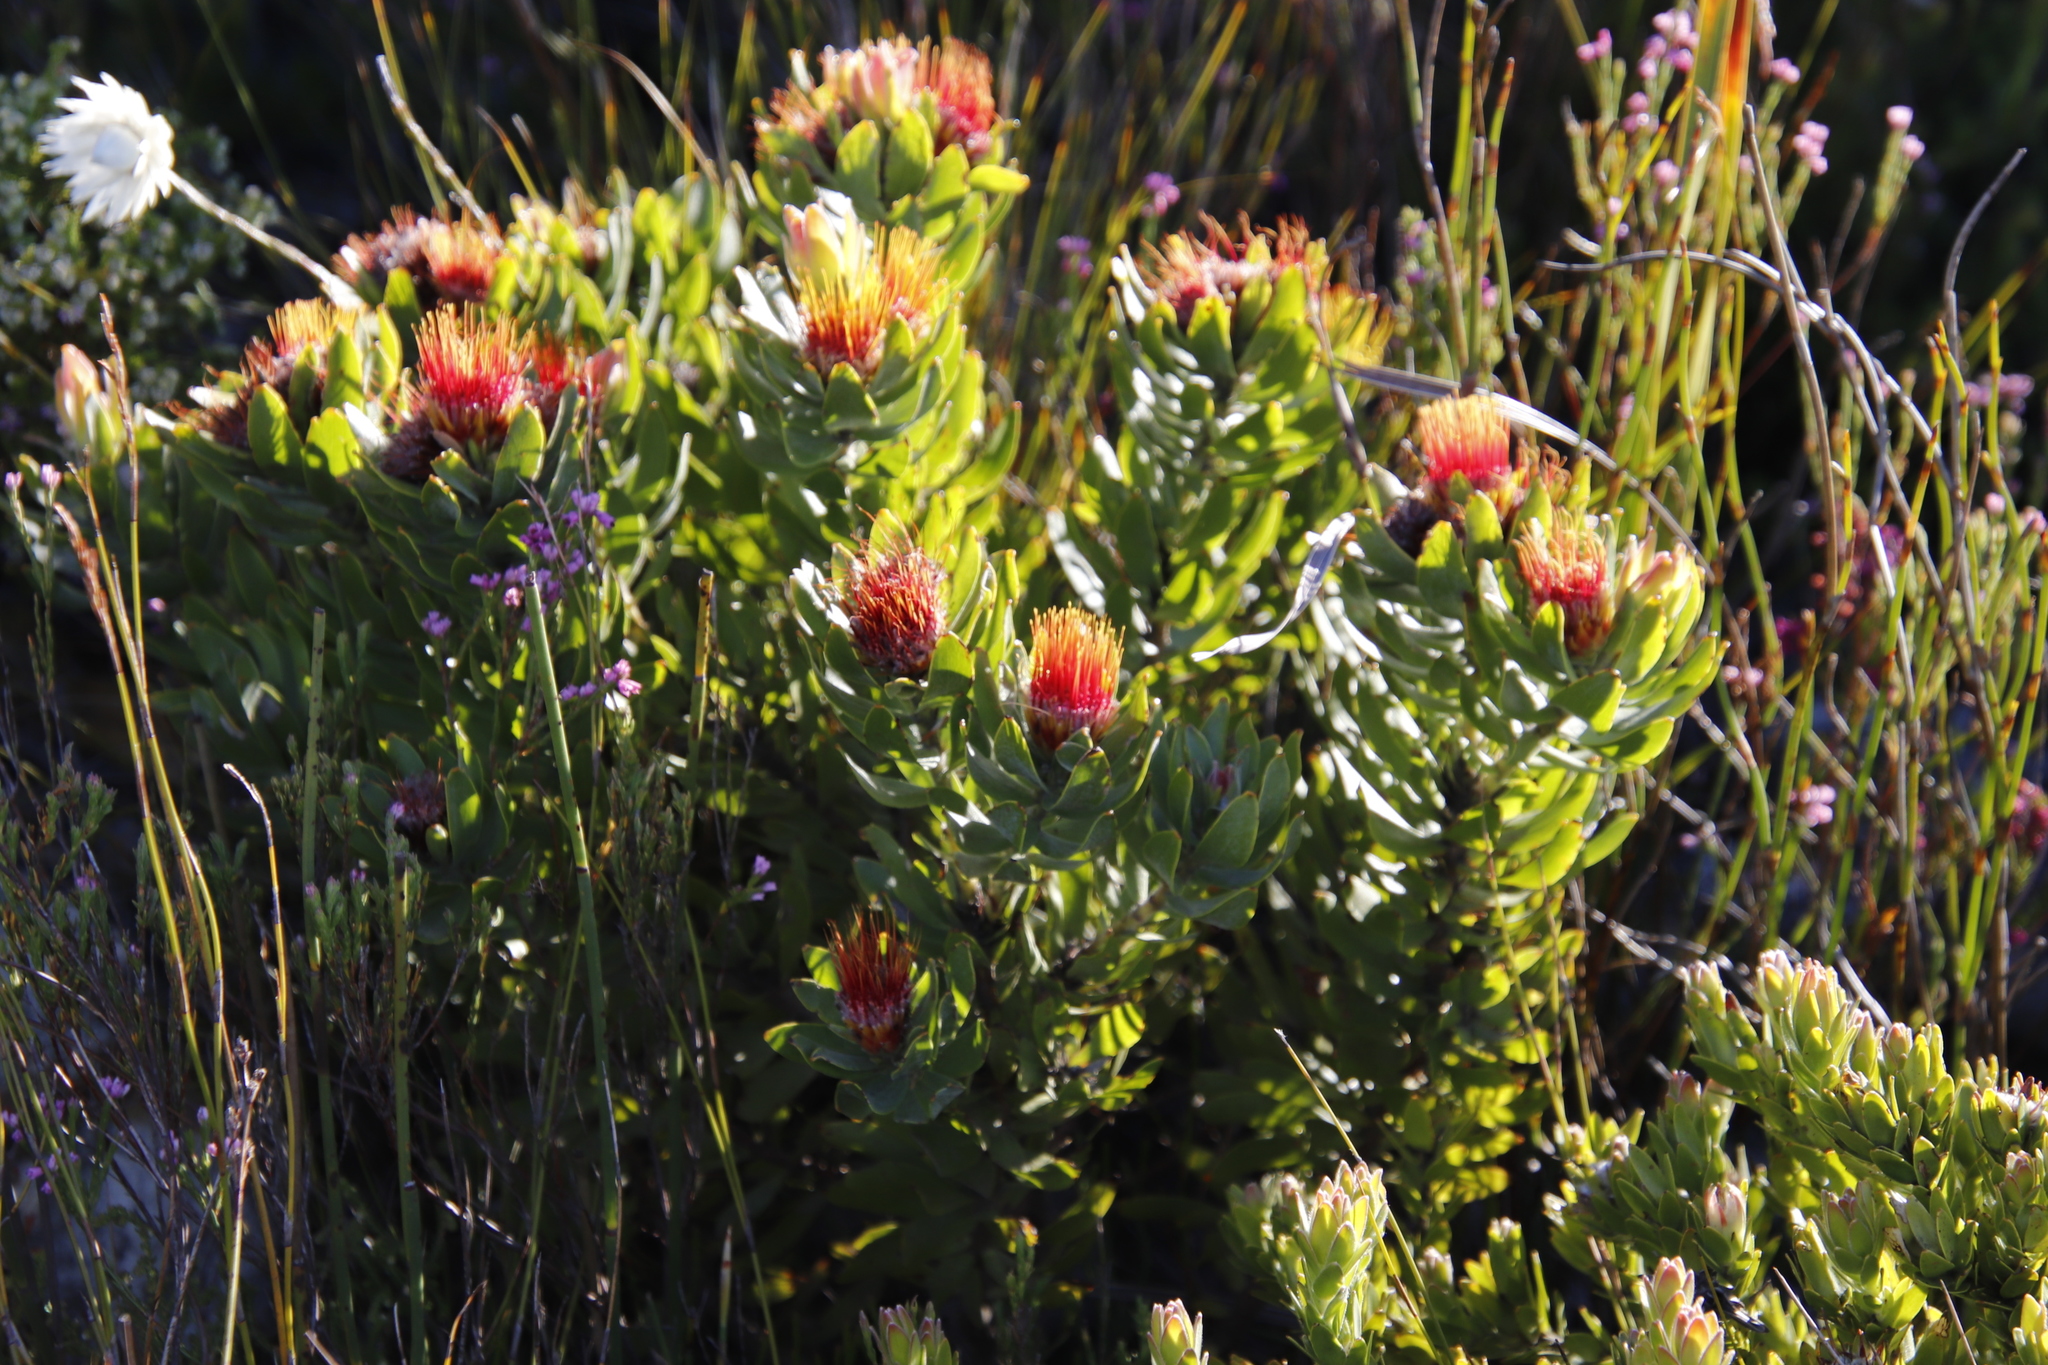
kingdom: Plantae
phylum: Tracheophyta
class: Magnoliopsida
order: Proteales
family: Proteaceae
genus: Leucospermum
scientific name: Leucospermum oleifolium
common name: Matches
